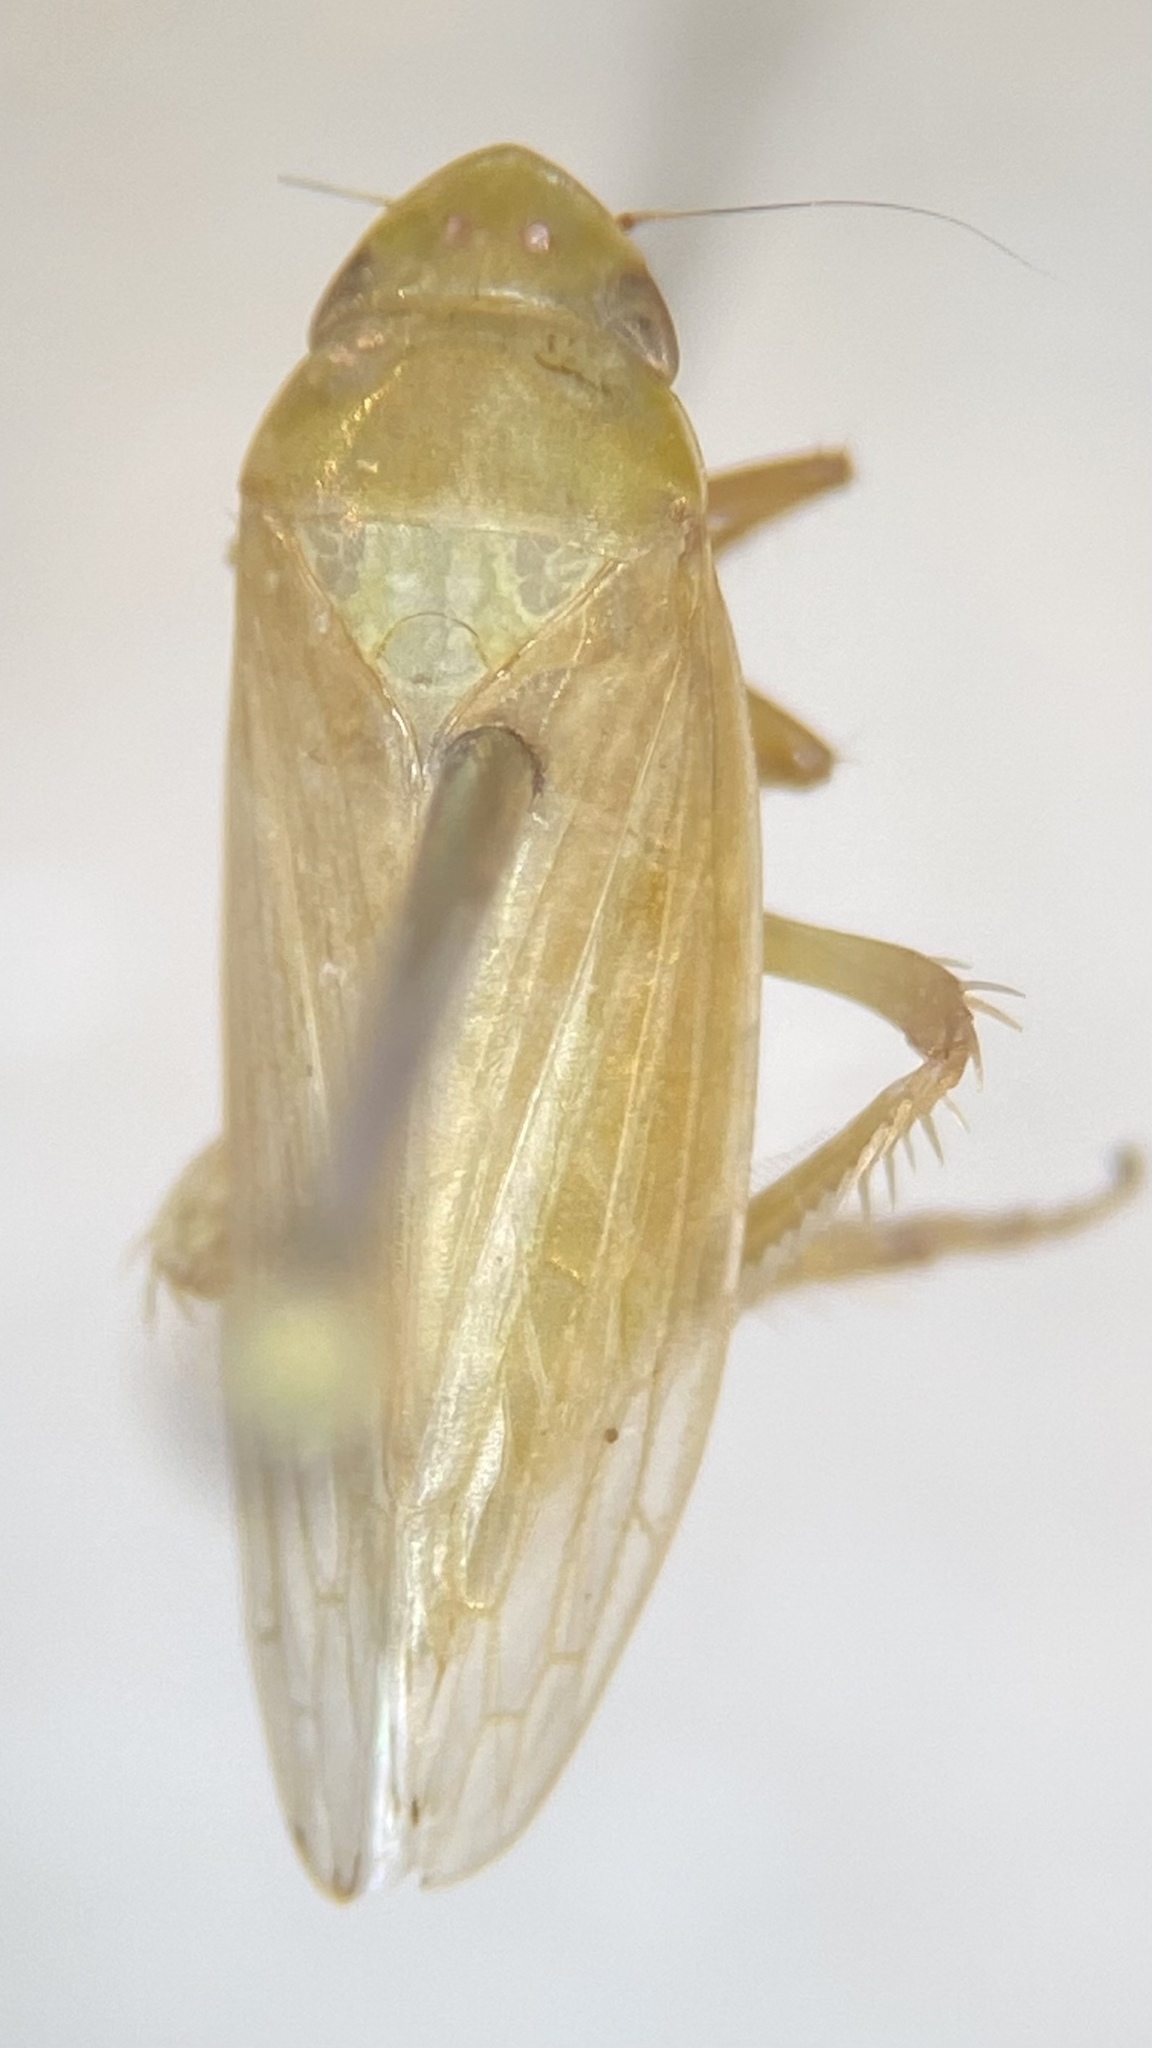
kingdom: Animalia
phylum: Arthropoda
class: Insecta
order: Hemiptera
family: Cicadellidae
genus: Gyponana
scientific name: Gyponana
